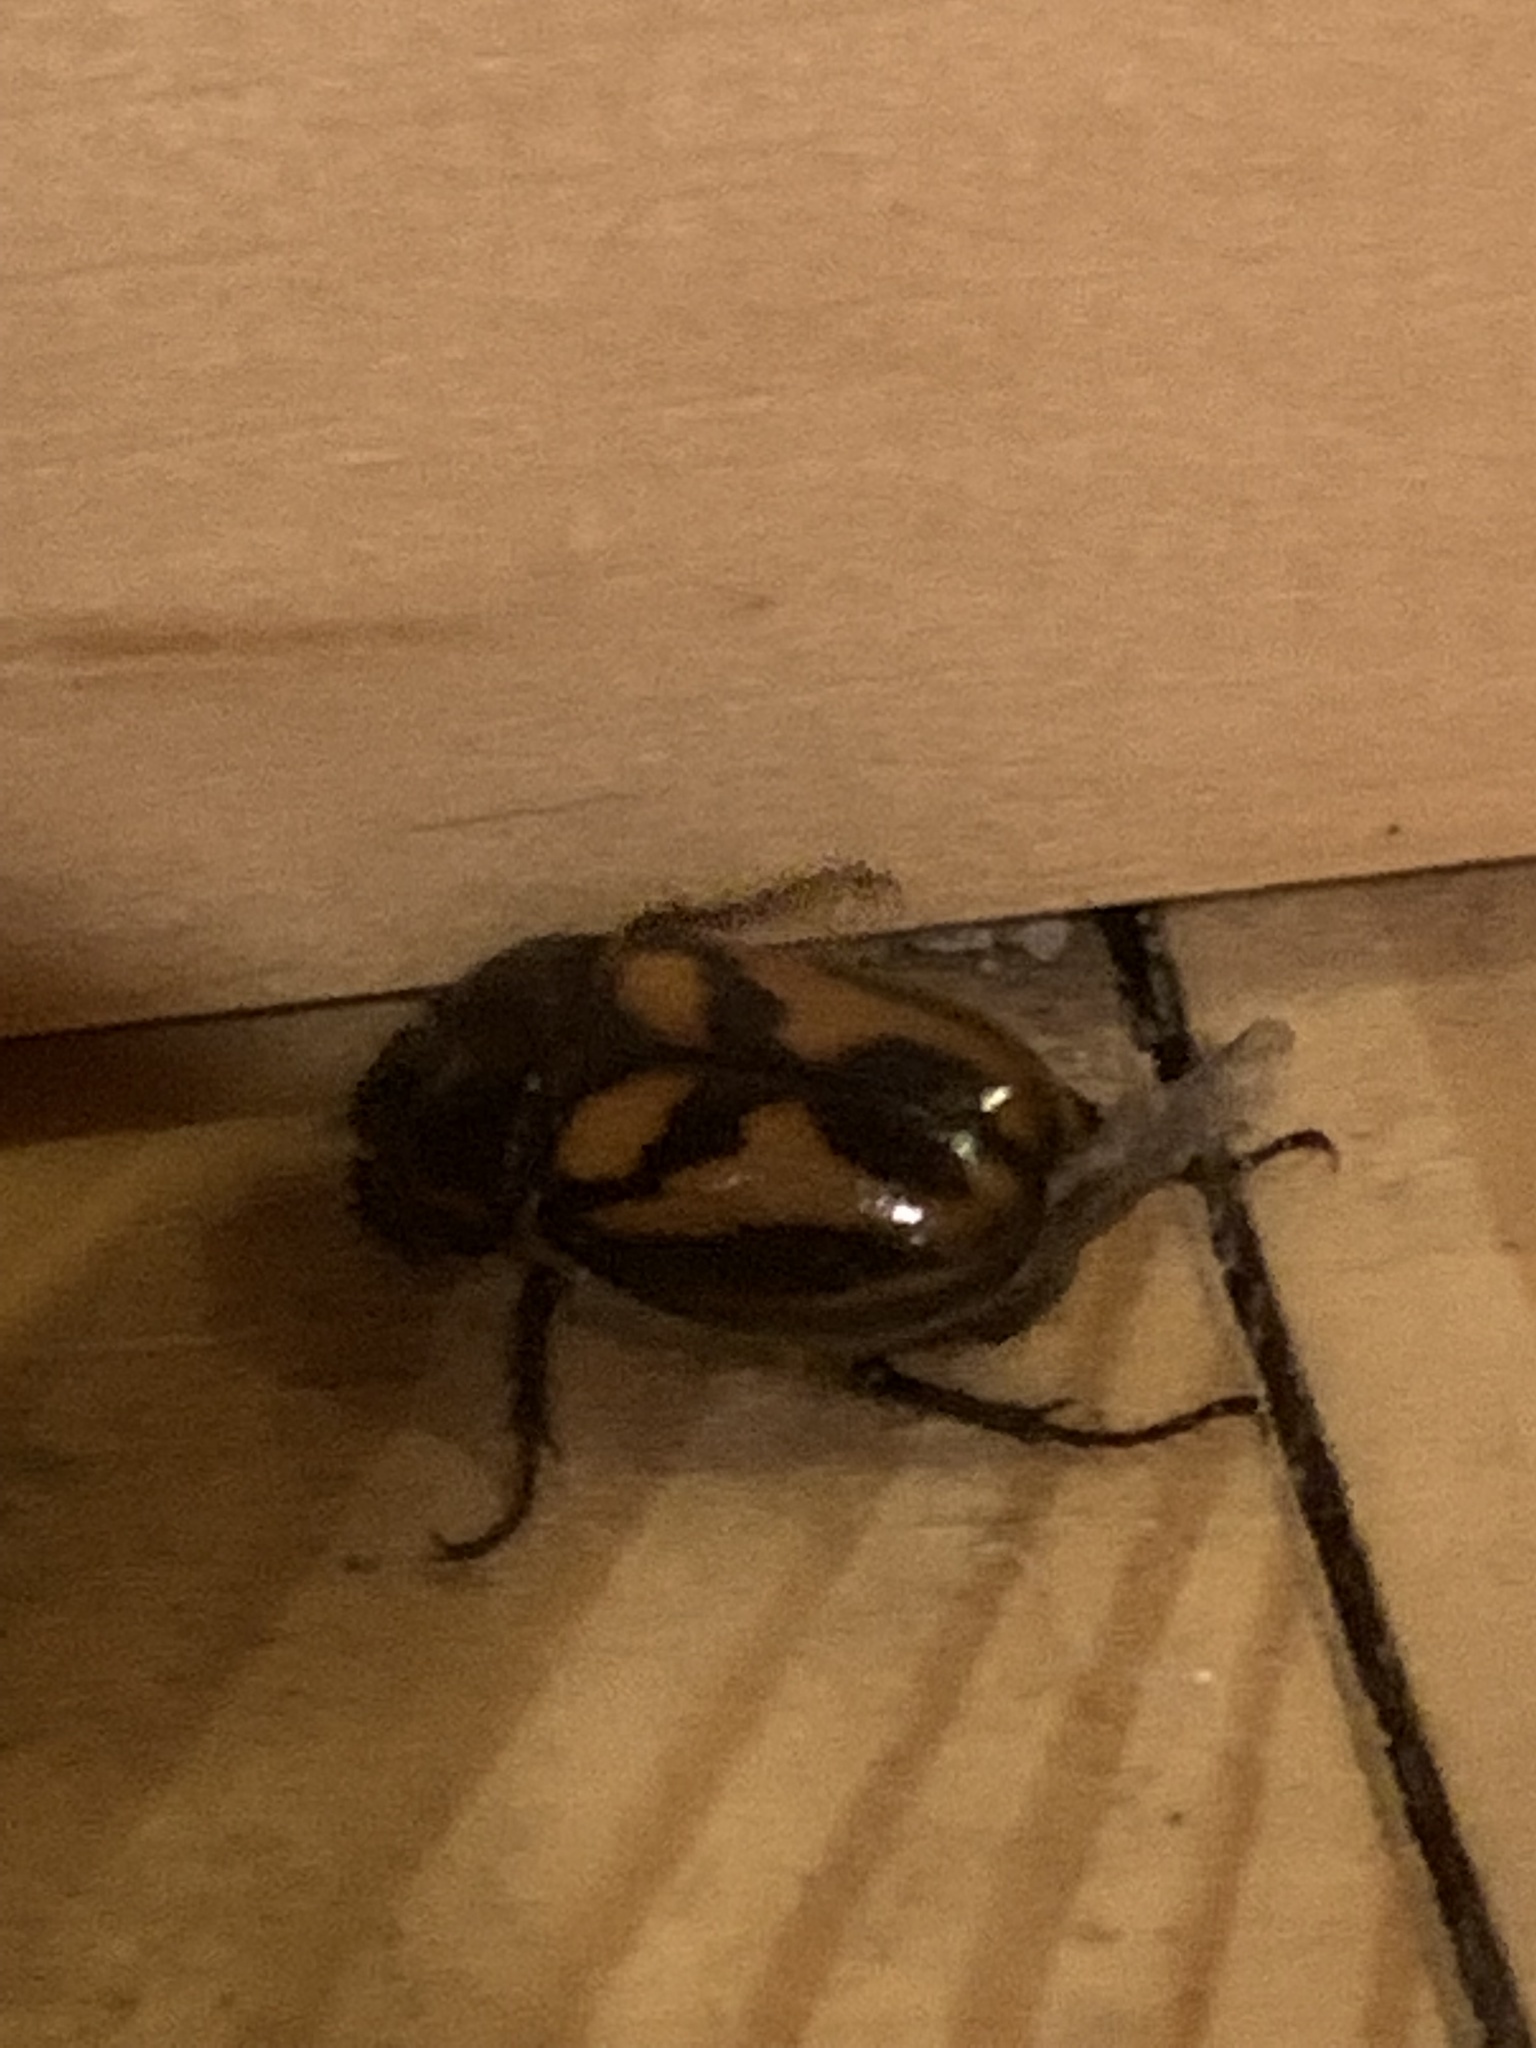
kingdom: Animalia
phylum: Arthropoda
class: Insecta
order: Coleoptera
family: Scarabaeidae
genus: Oryctomorphus
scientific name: Oryctomorphus bimaculatus
